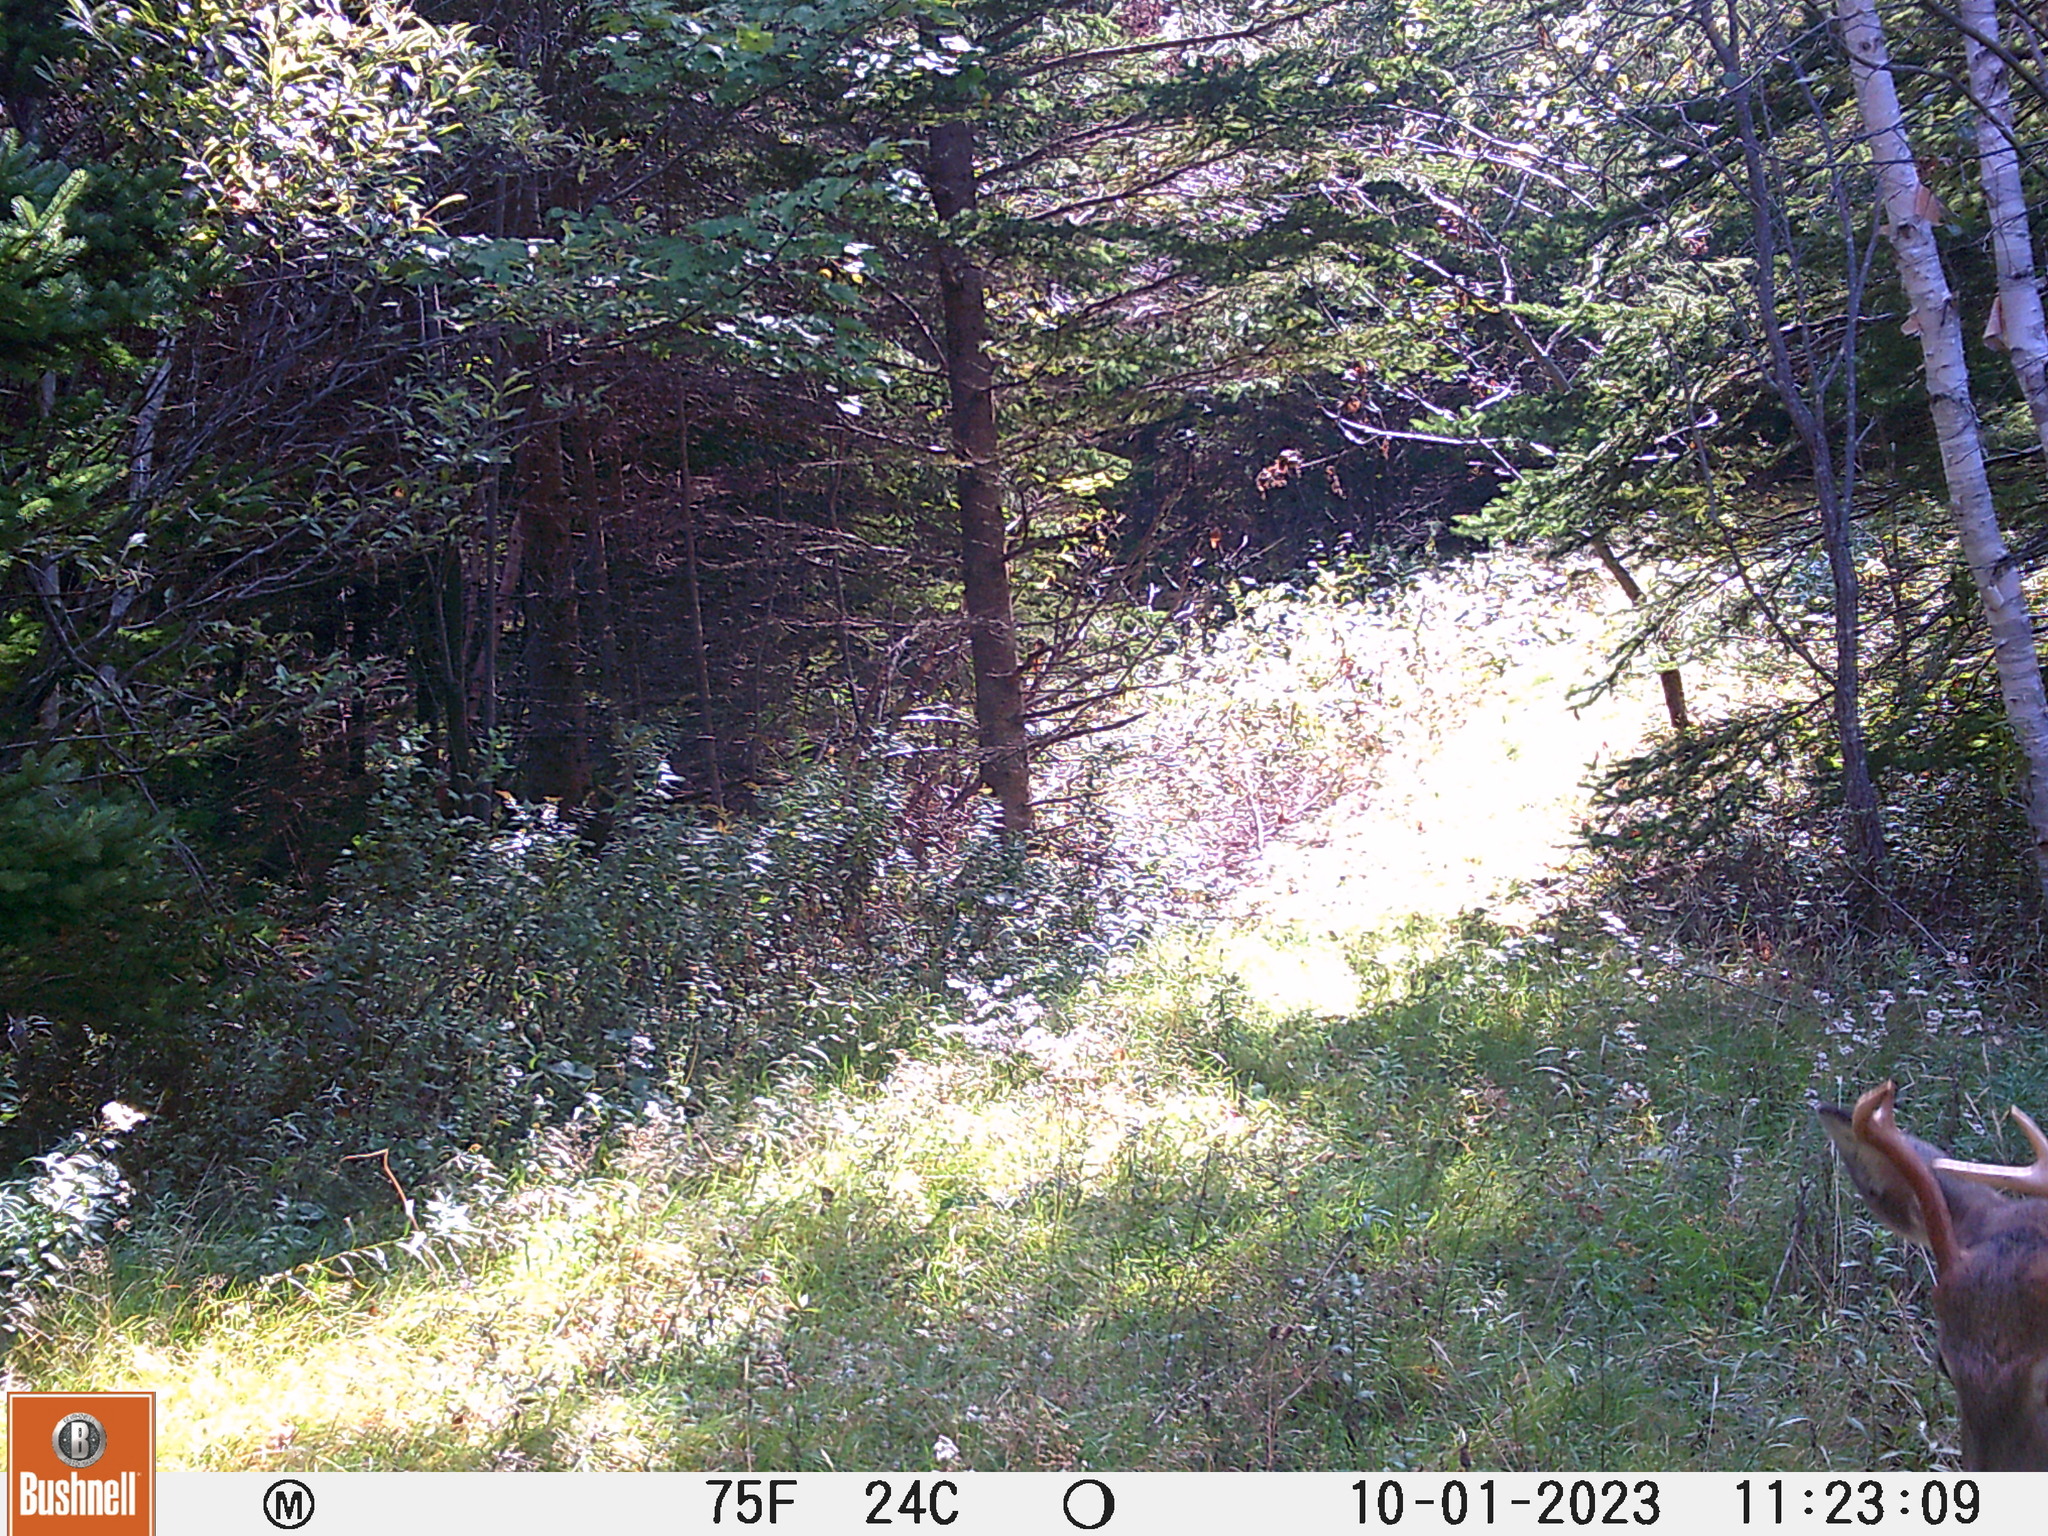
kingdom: Animalia
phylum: Chordata
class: Mammalia
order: Artiodactyla
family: Cervidae
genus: Odocoileus
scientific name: Odocoileus virginianus
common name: White-tailed deer
